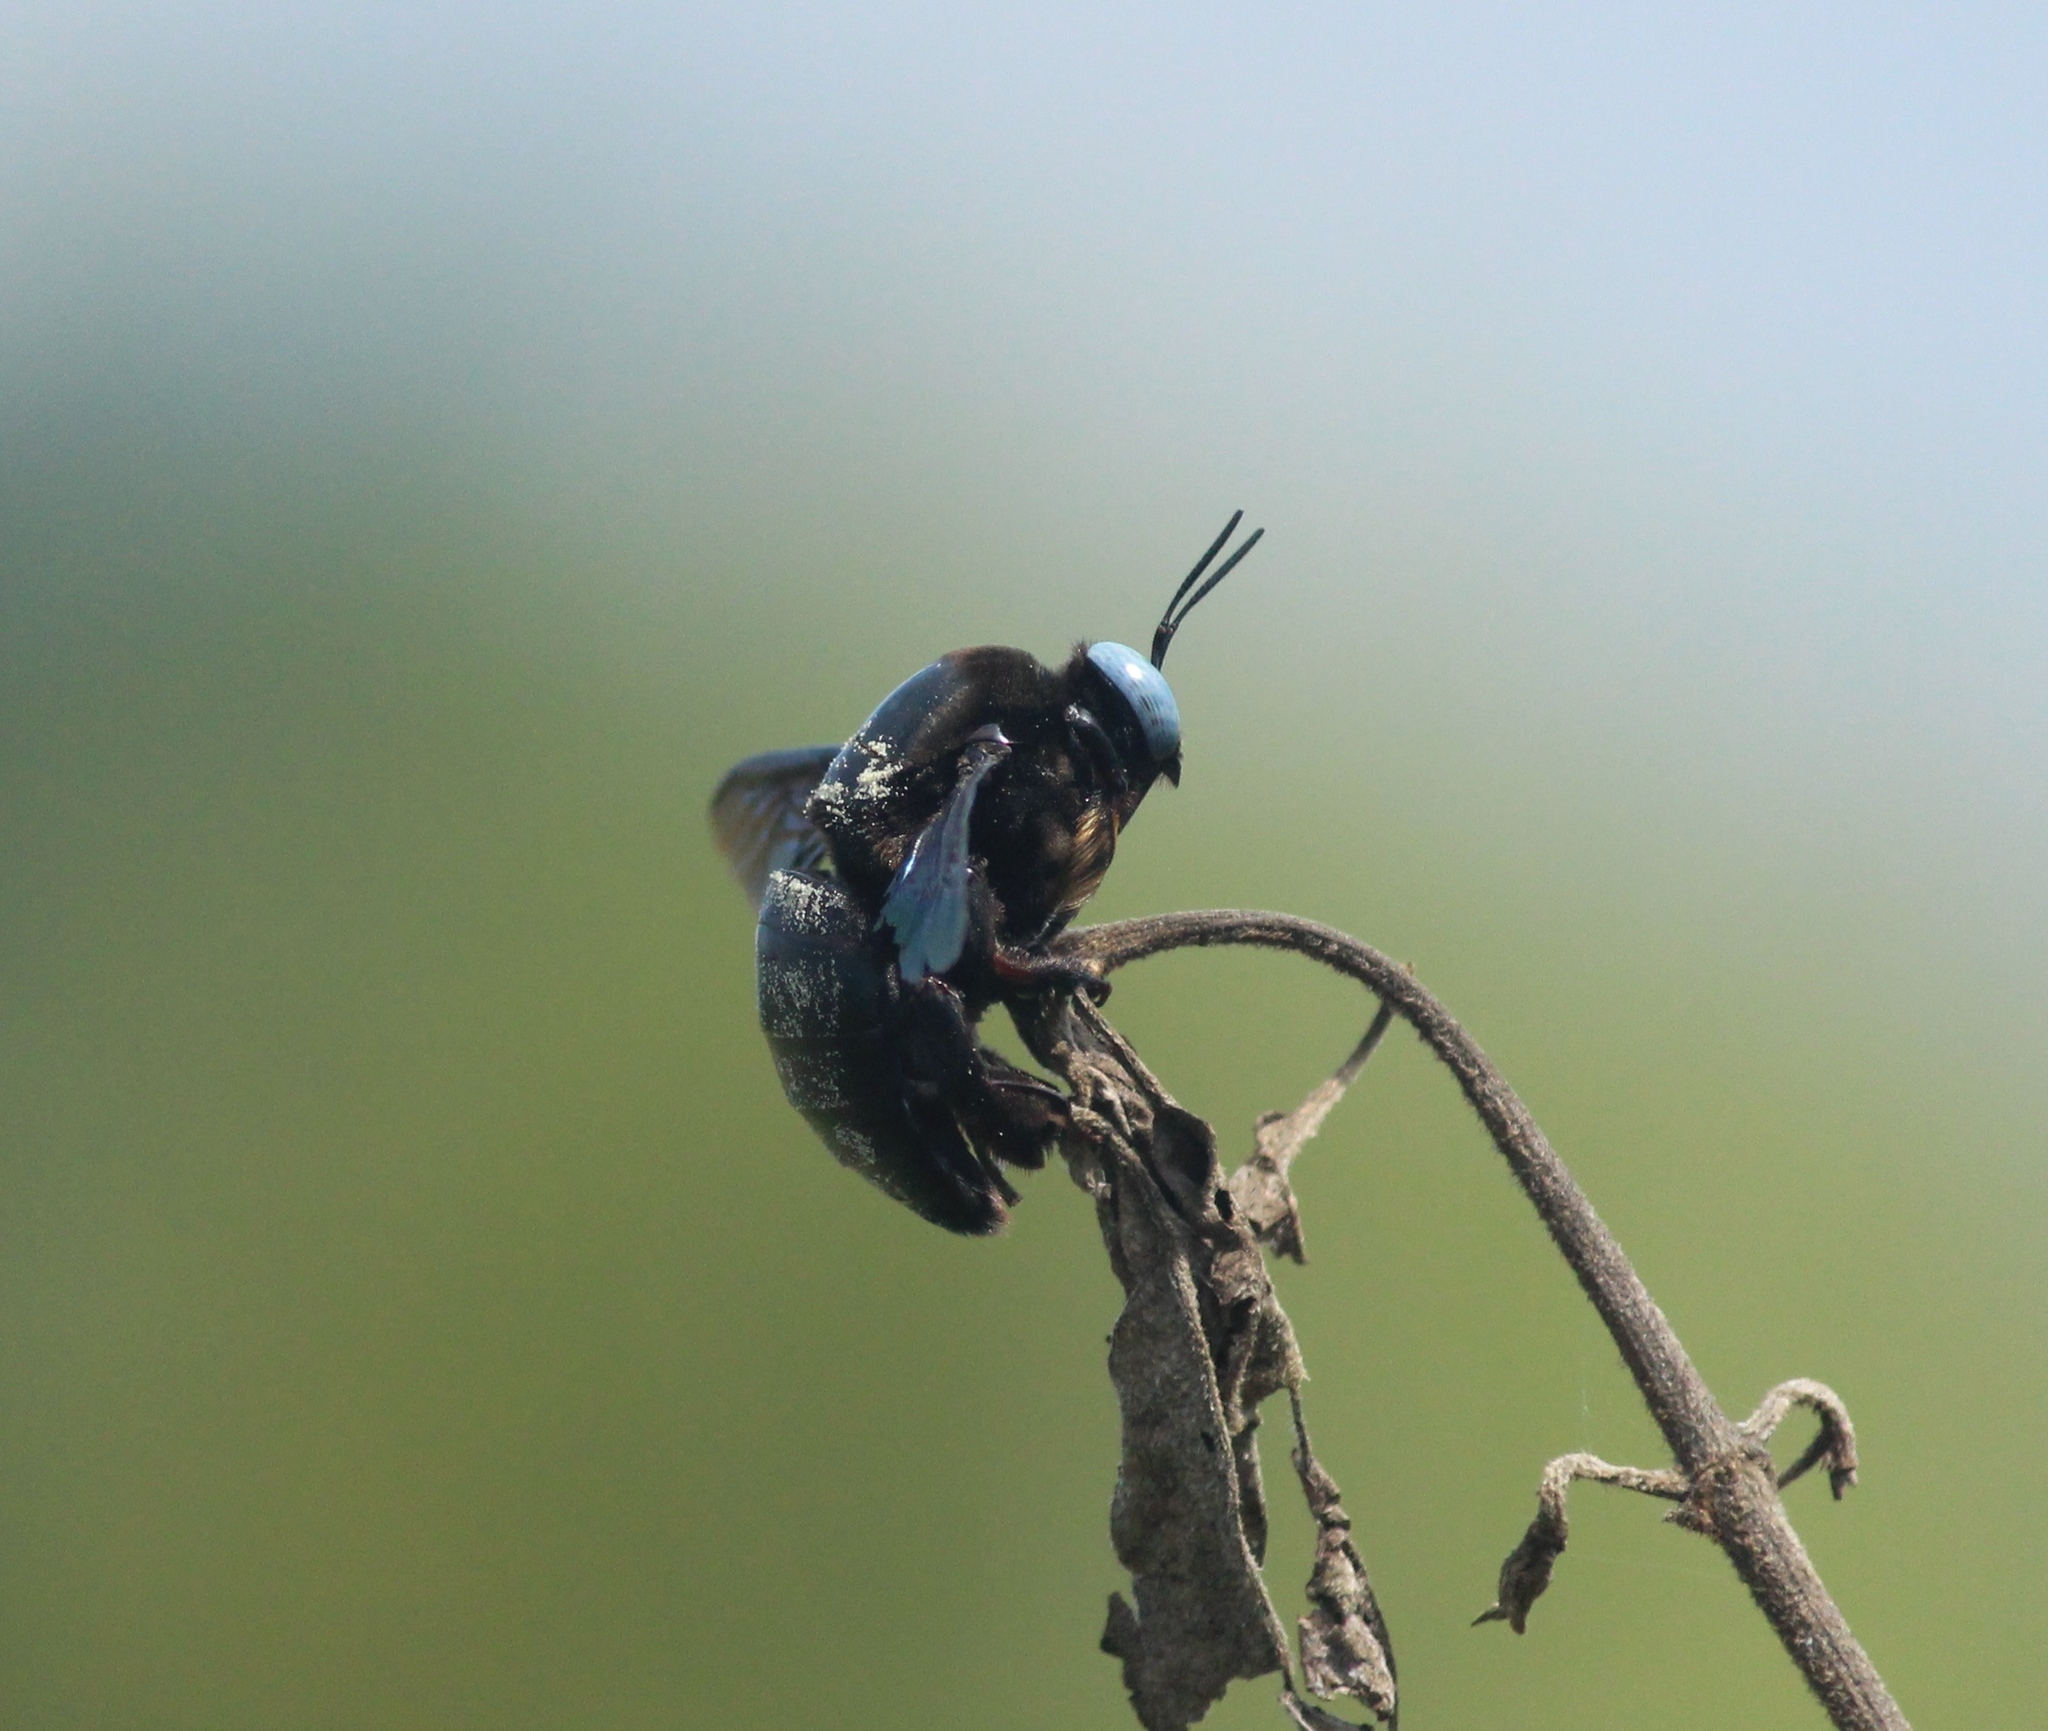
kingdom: Animalia
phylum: Arthropoda
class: Insecta
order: Hymenoptera
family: Apidae
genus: Xylocopa
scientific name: Xylocopa tenuiscapa
